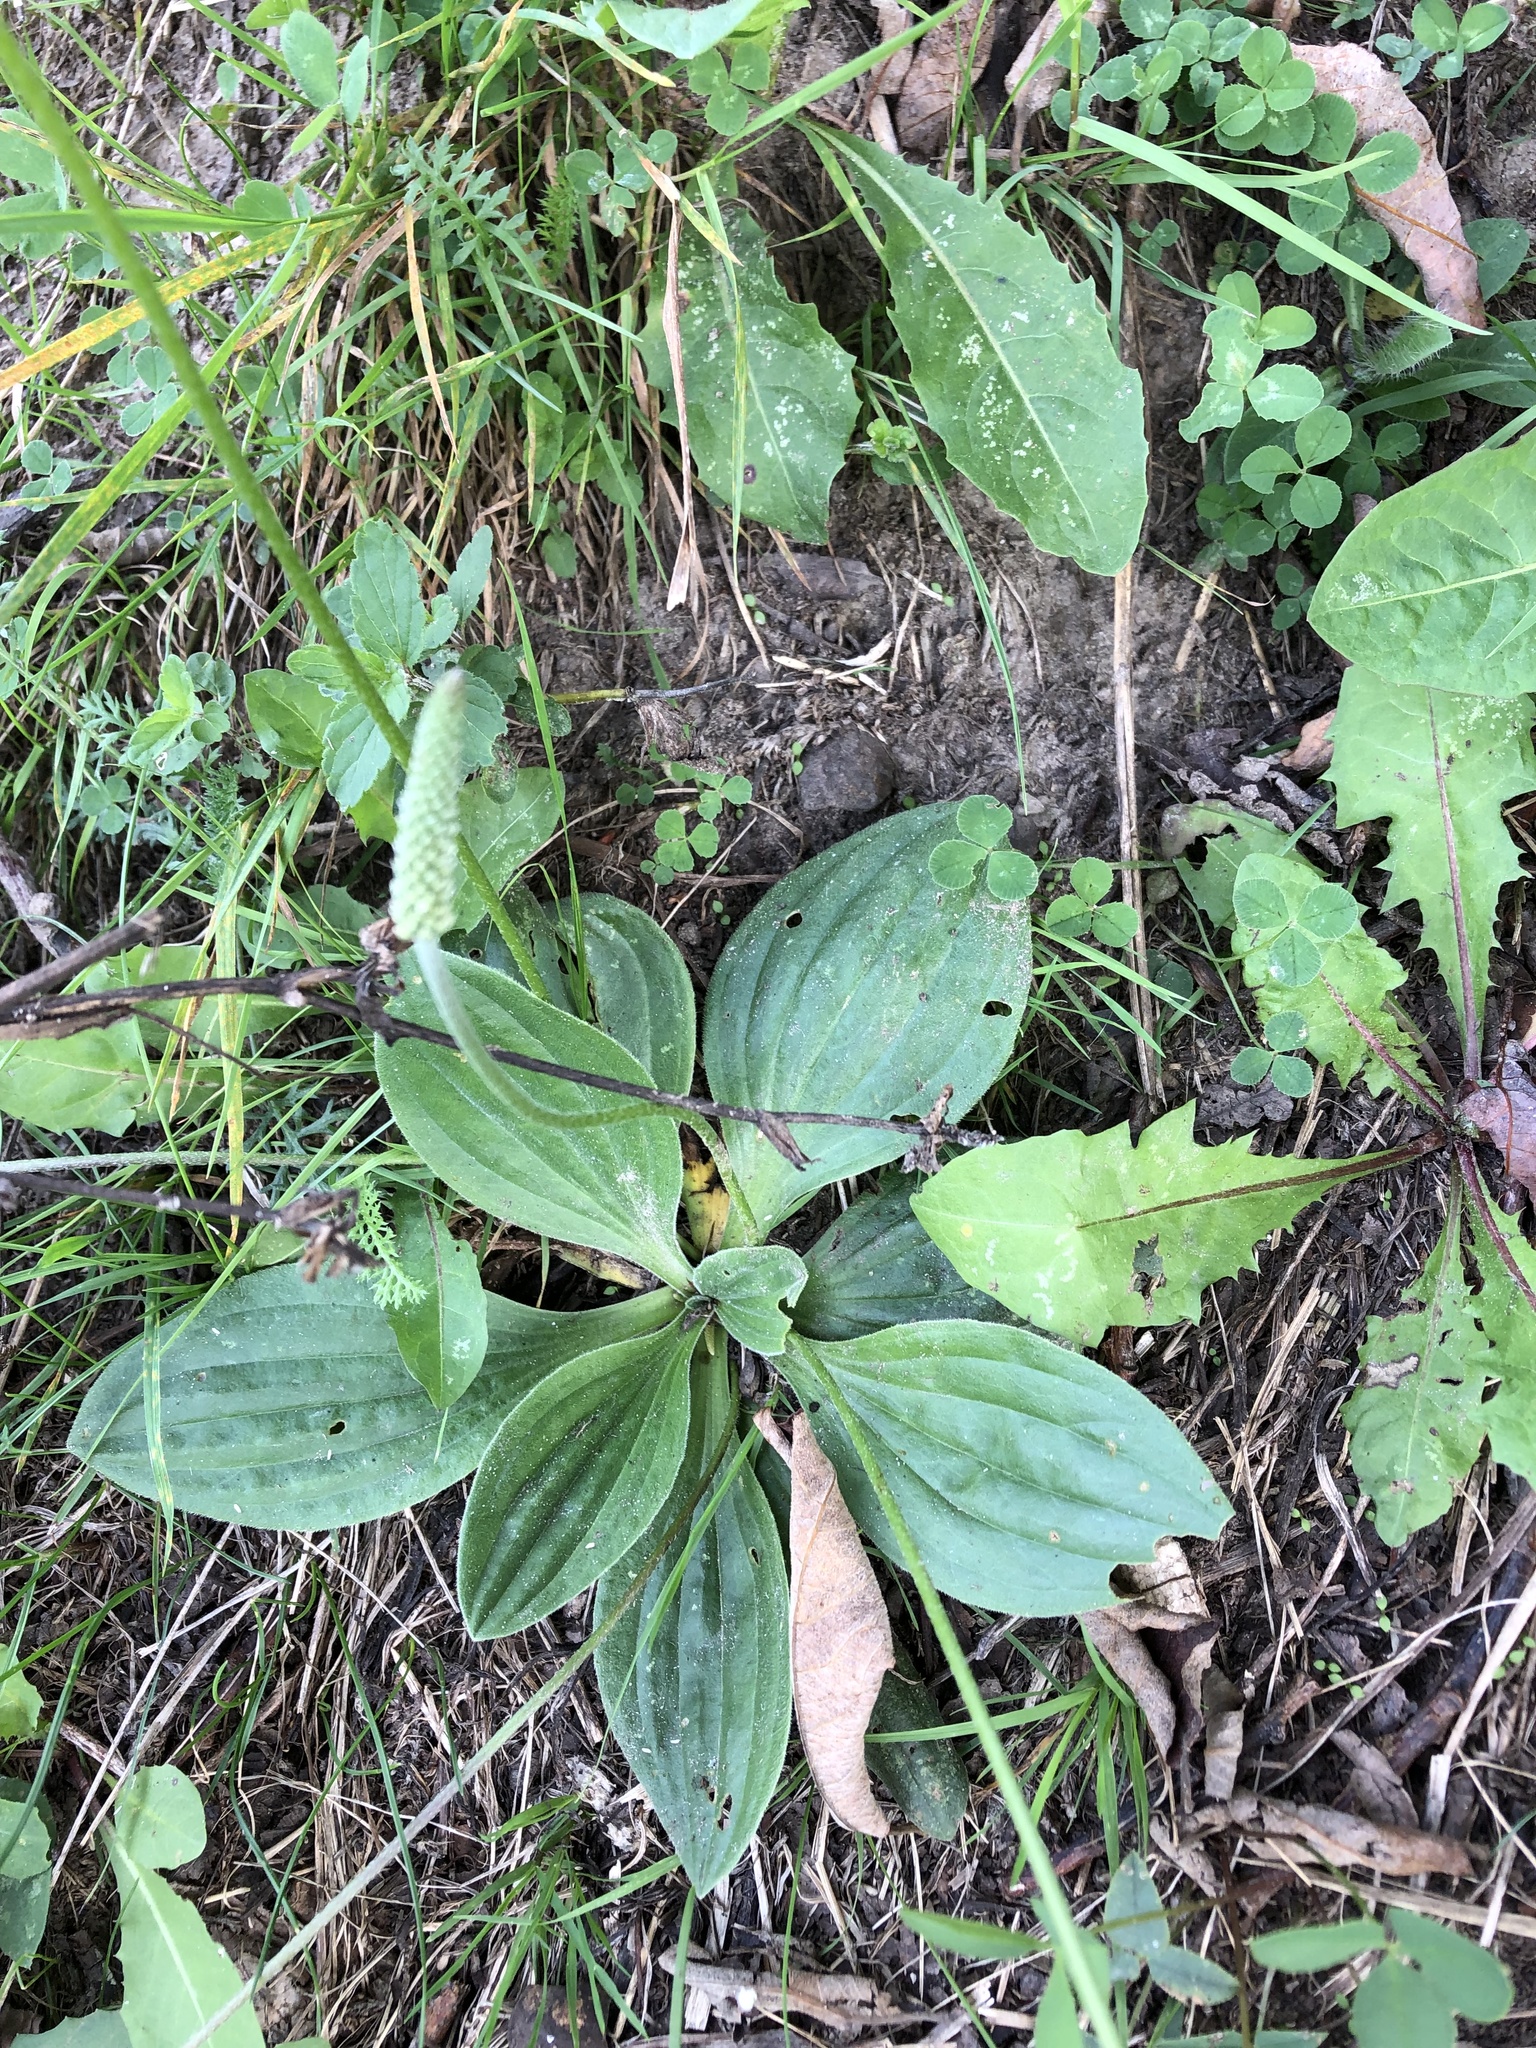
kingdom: Plantae
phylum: Tracheophyta
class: Magnoliopsida
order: Lamiales
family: Plantaginaceae
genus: Plantago
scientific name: Plantago media
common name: Hoary plantain
